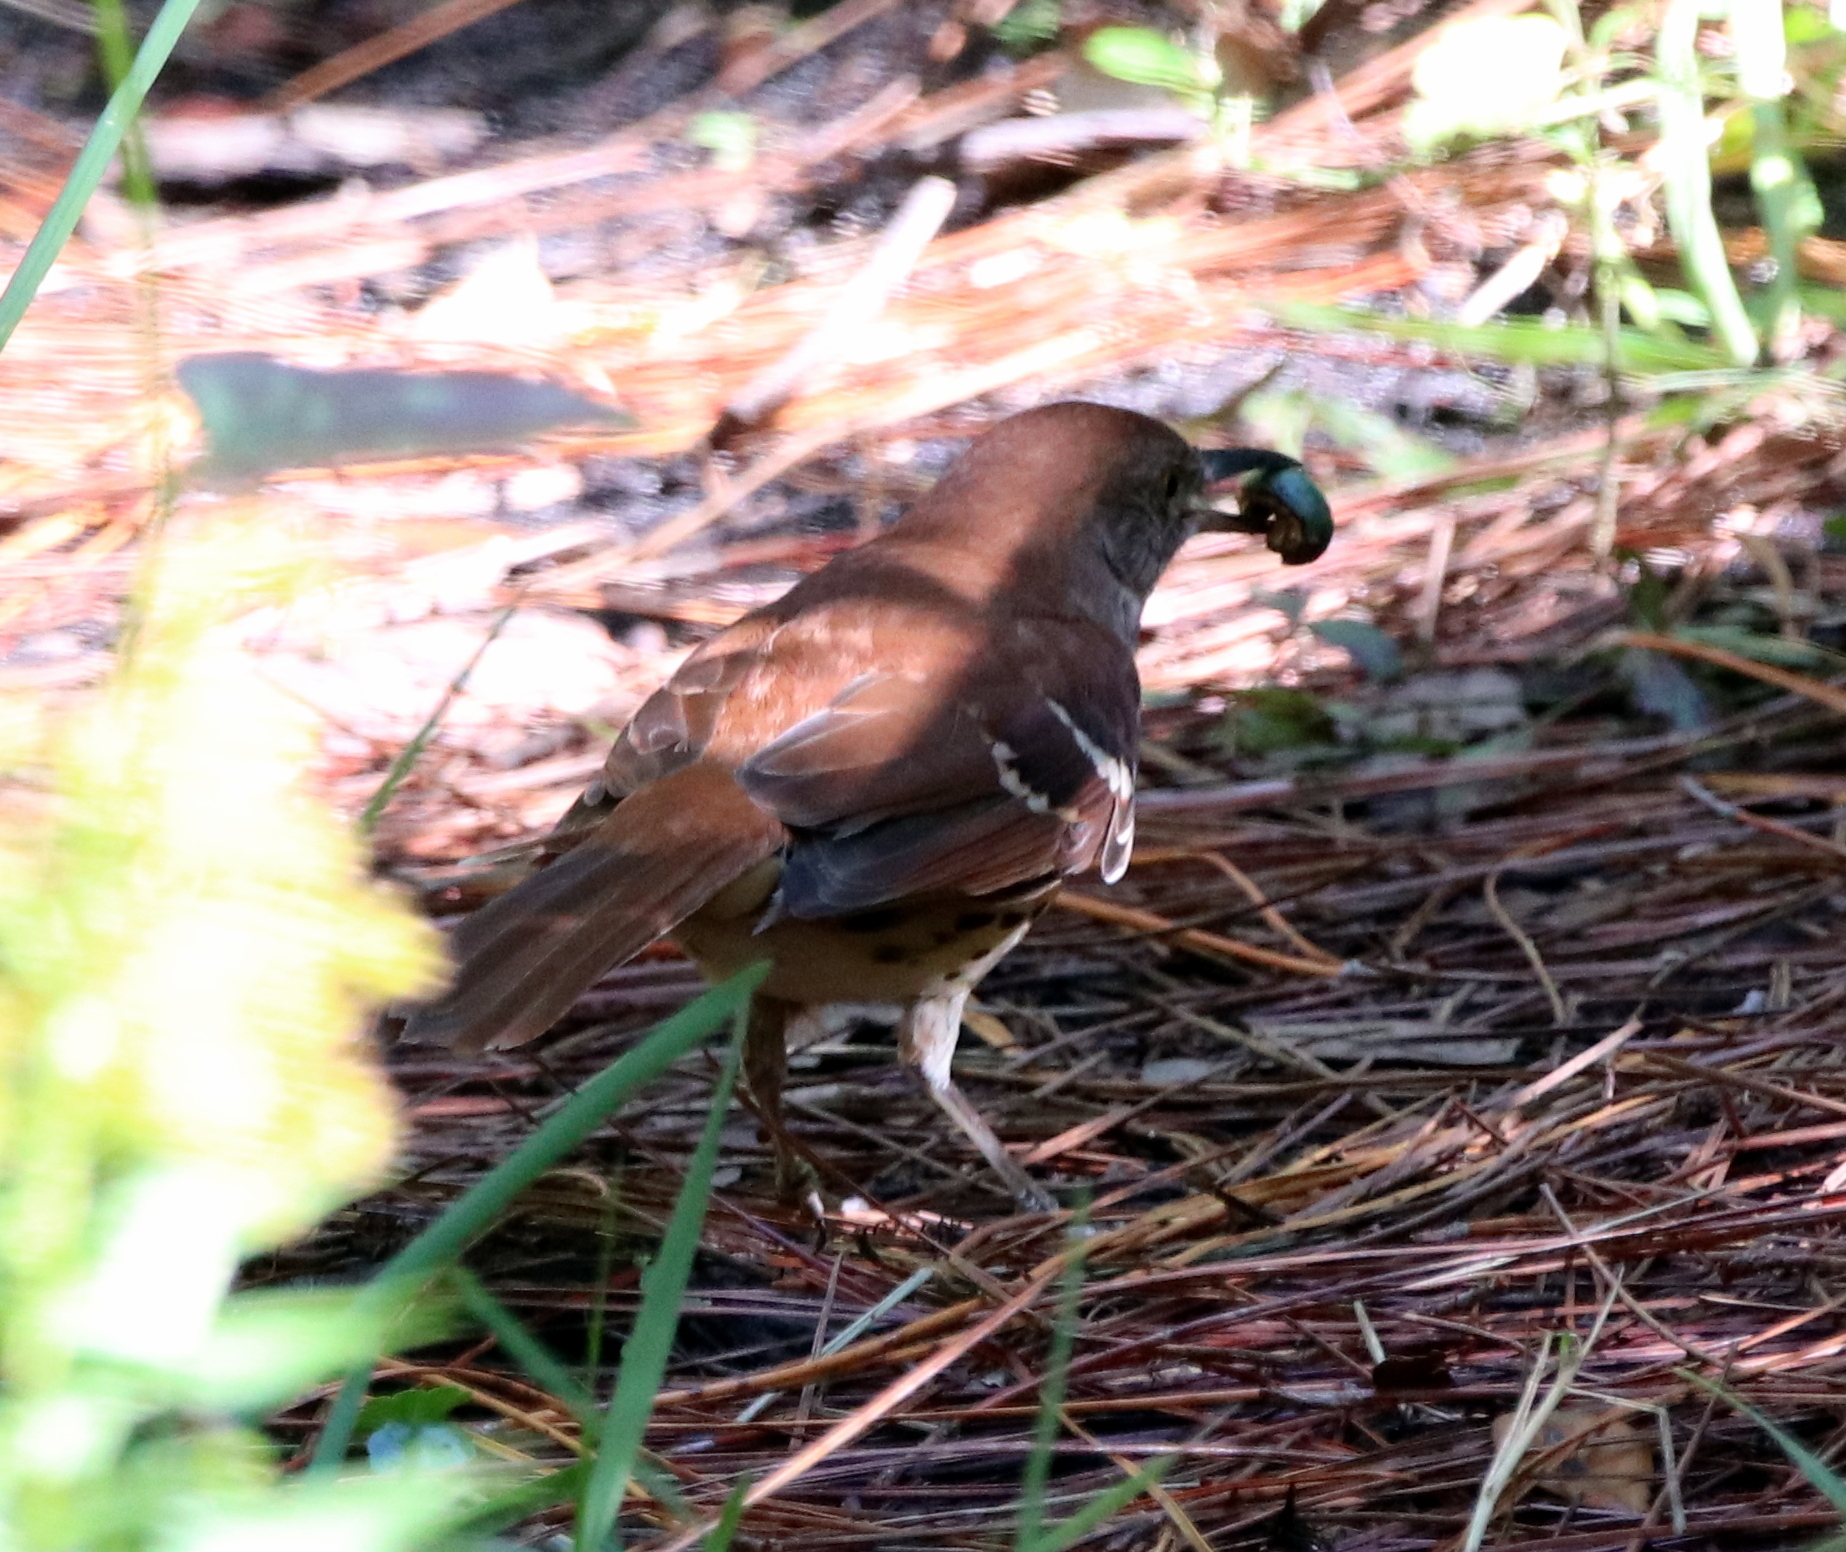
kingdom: Animalia
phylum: Chordata
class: Aves
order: Passeriformes
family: Mimidae
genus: Toxostoma
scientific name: Toxostoma rufum
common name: Brown thrasher
